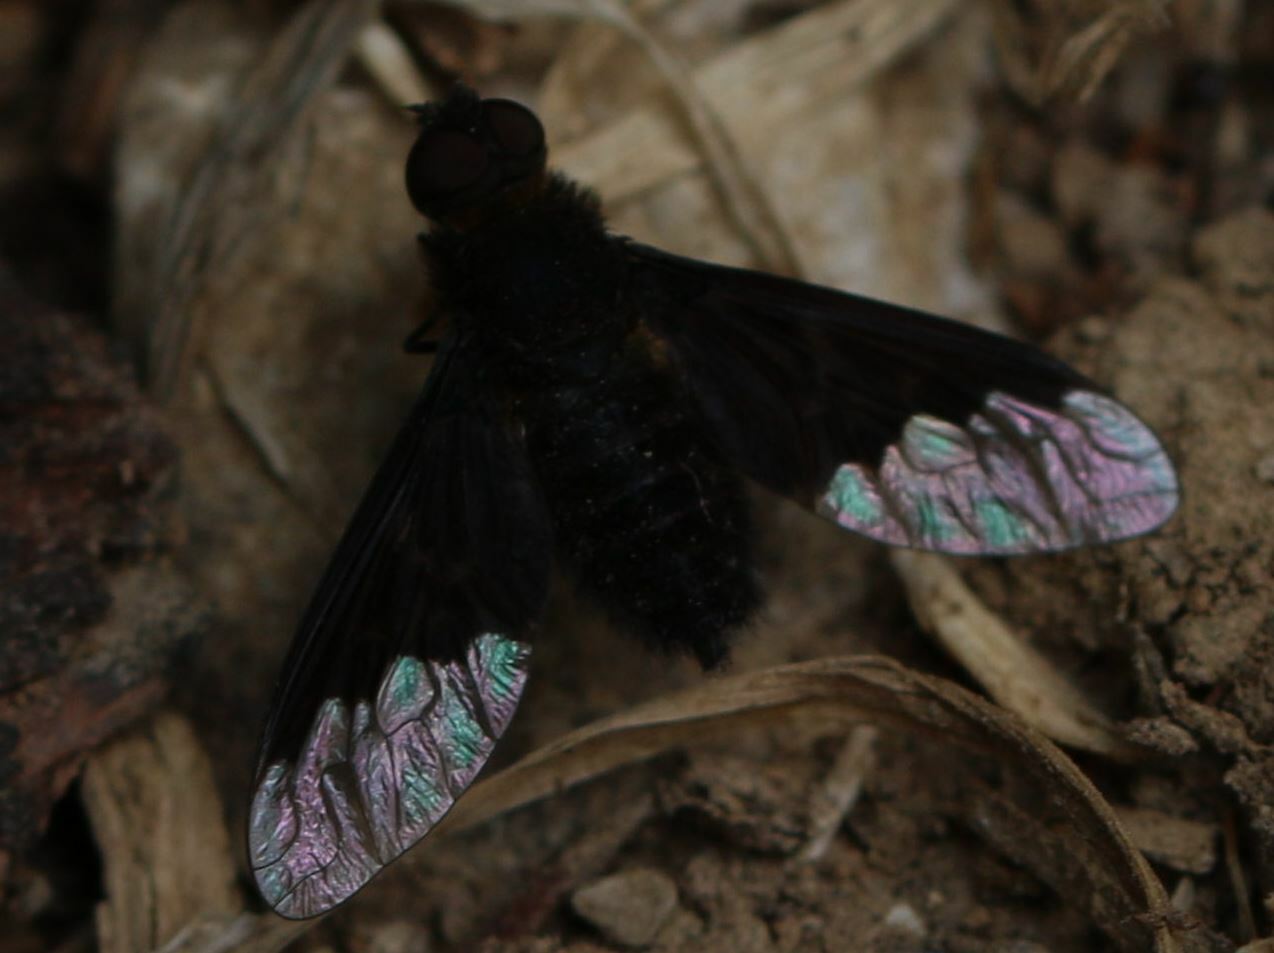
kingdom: Animalia
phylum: Arthropoda
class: Insecta
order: Diptera
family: Bombyliidae
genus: Hemipenthes
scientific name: Hemipenthes morio
